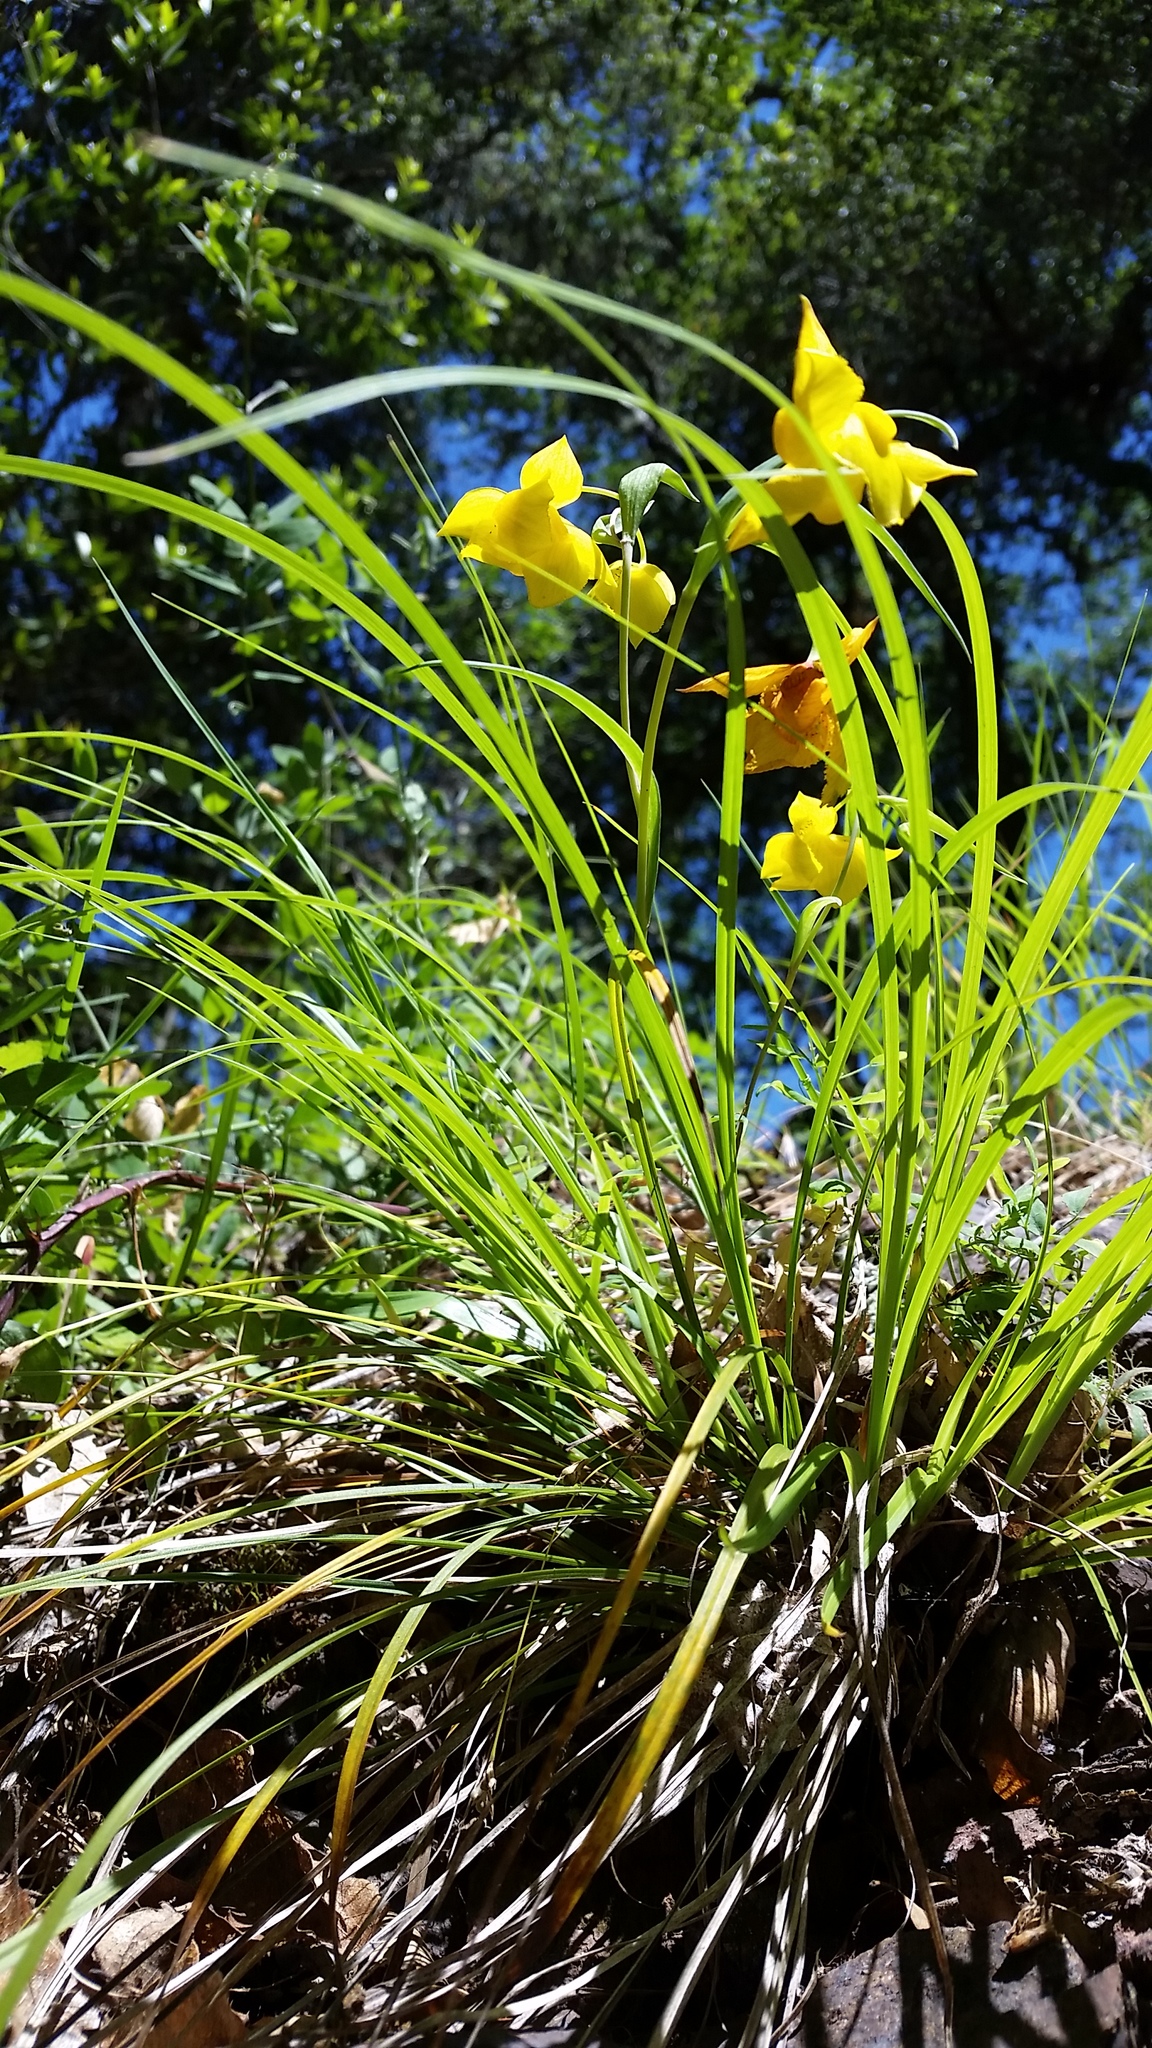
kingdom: Plantae
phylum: Tracheophyta
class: Liliopsida
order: Liliales
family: Liliaceae
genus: Calochortus
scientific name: Calochortus amabilis
